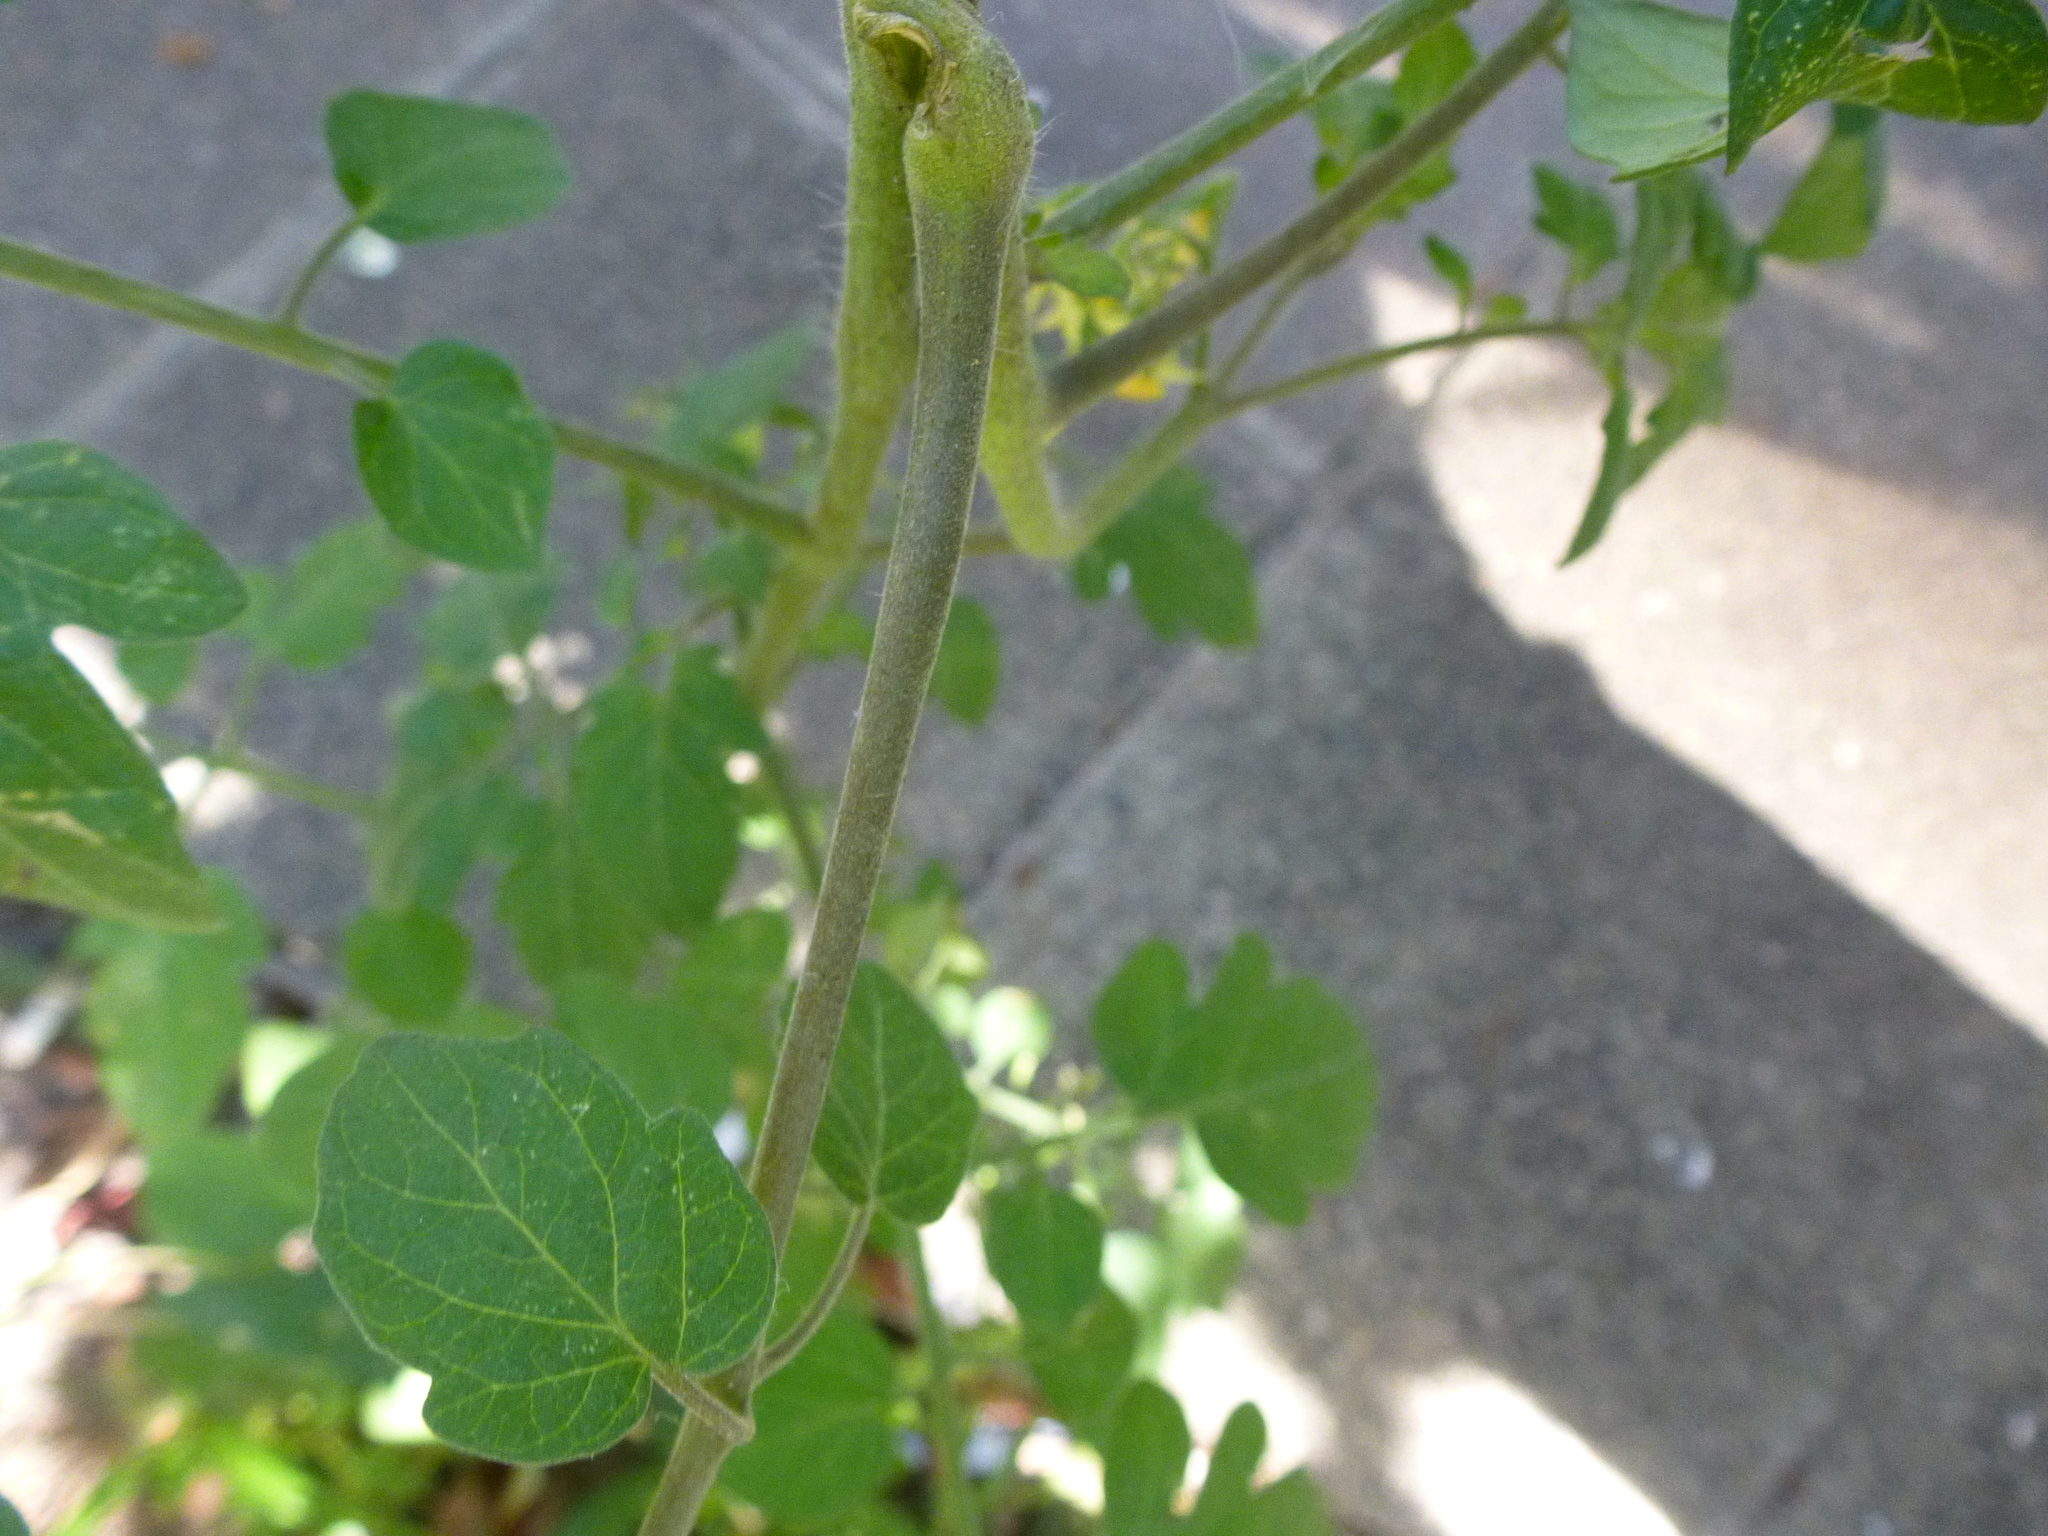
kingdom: Plantae
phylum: Tracheophyta
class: Magnoliopsida
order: Solanales
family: Solanaceae
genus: Solanum
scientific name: Solanum lycopersicum
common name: Garden tomato
